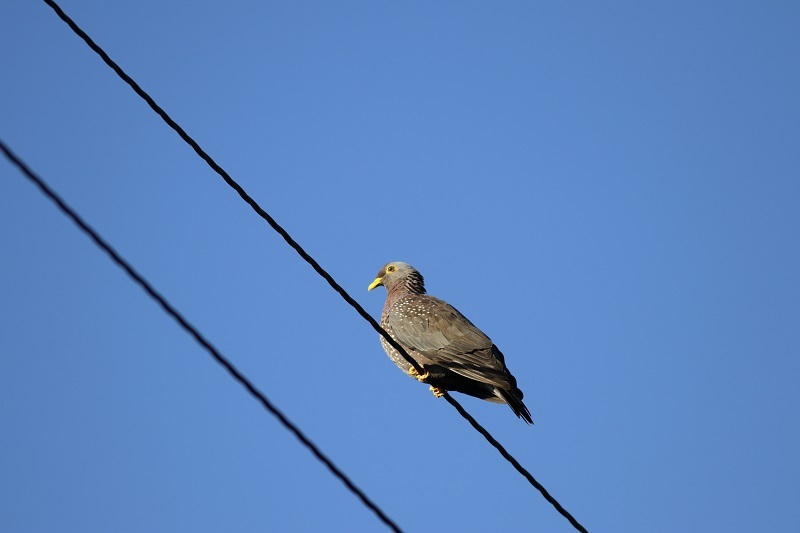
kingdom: Animalia
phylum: Chordata
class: Aves
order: Columbiformes
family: Columbidae
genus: Columba
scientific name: Columba arquatrix
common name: African olive pigeon
